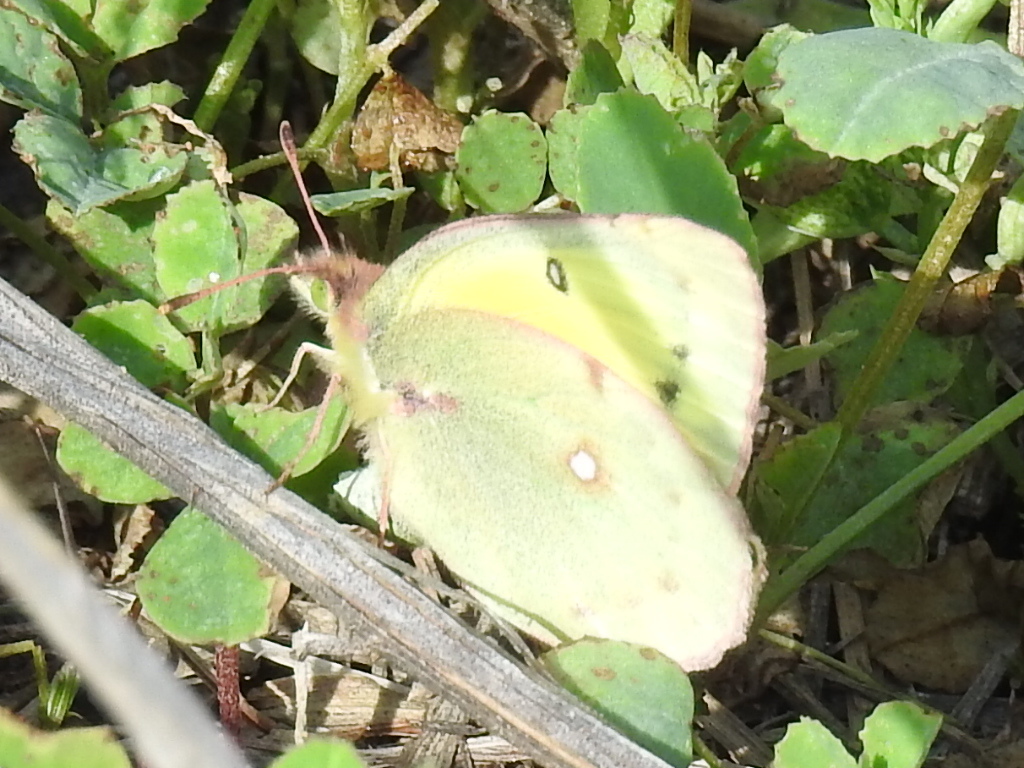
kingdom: Animalia
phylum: Arthropoda
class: Insecta
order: Lepidoptera
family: Pieridae
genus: Colias
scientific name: Colias eurytheme
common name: Alfalfa butterfly
